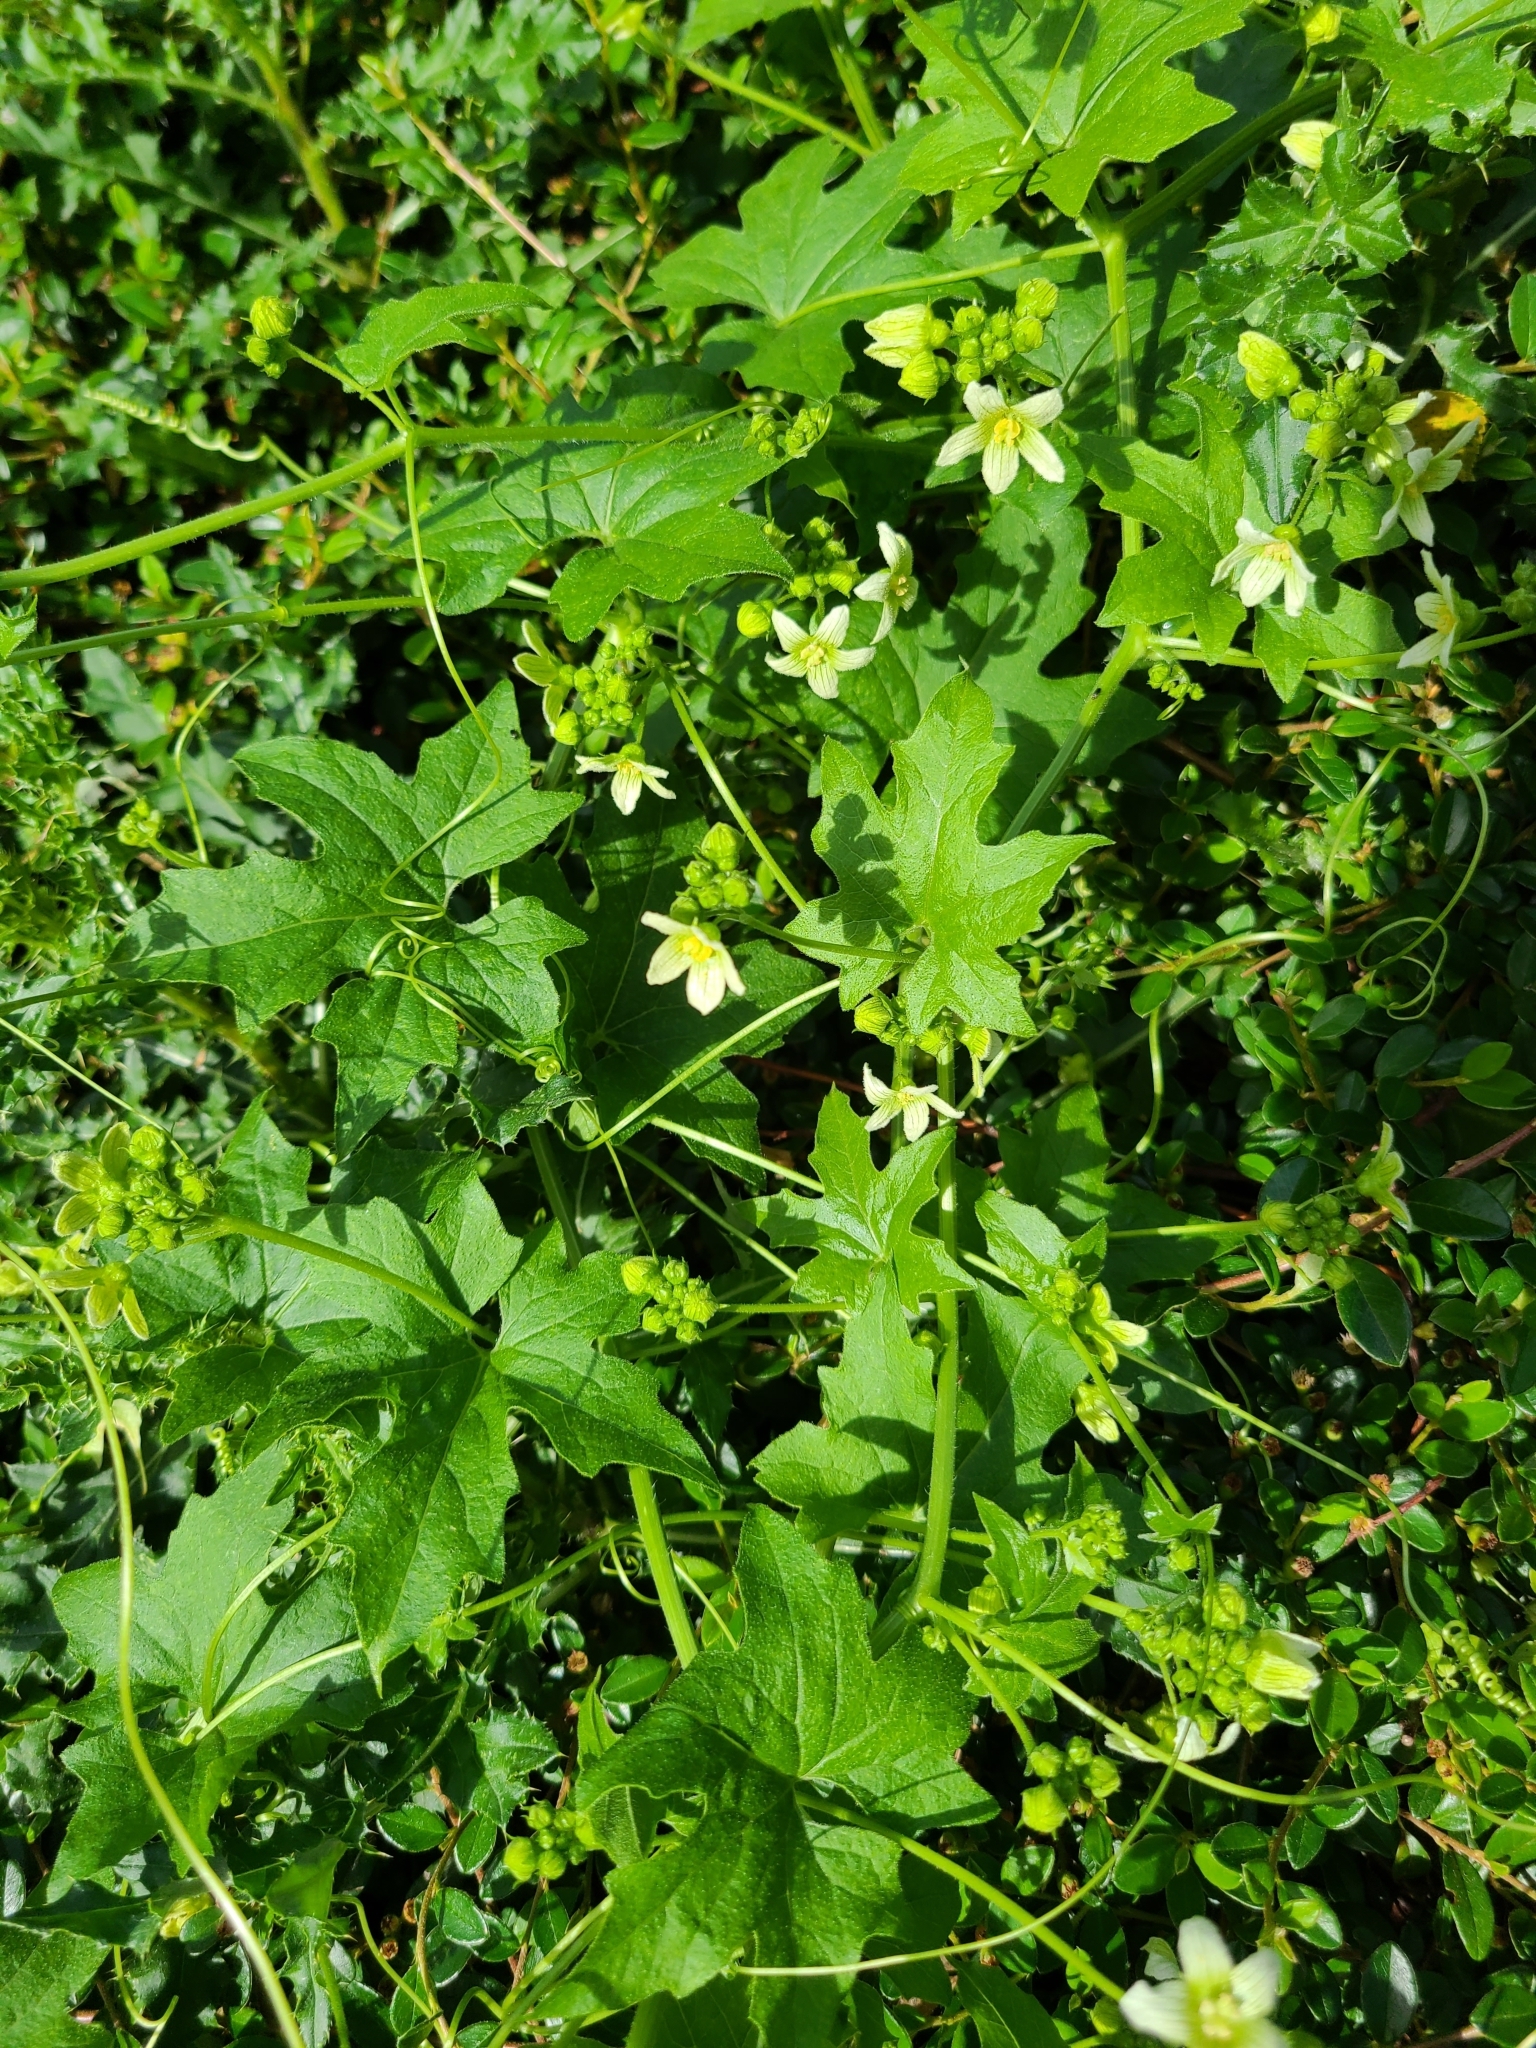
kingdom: Plantae
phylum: Tracheophyta
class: Magnoliopsida
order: Cucurbitales
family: Cucurbitaceae
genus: Bryonia
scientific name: Bryonia cretica
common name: Cretan bryony
